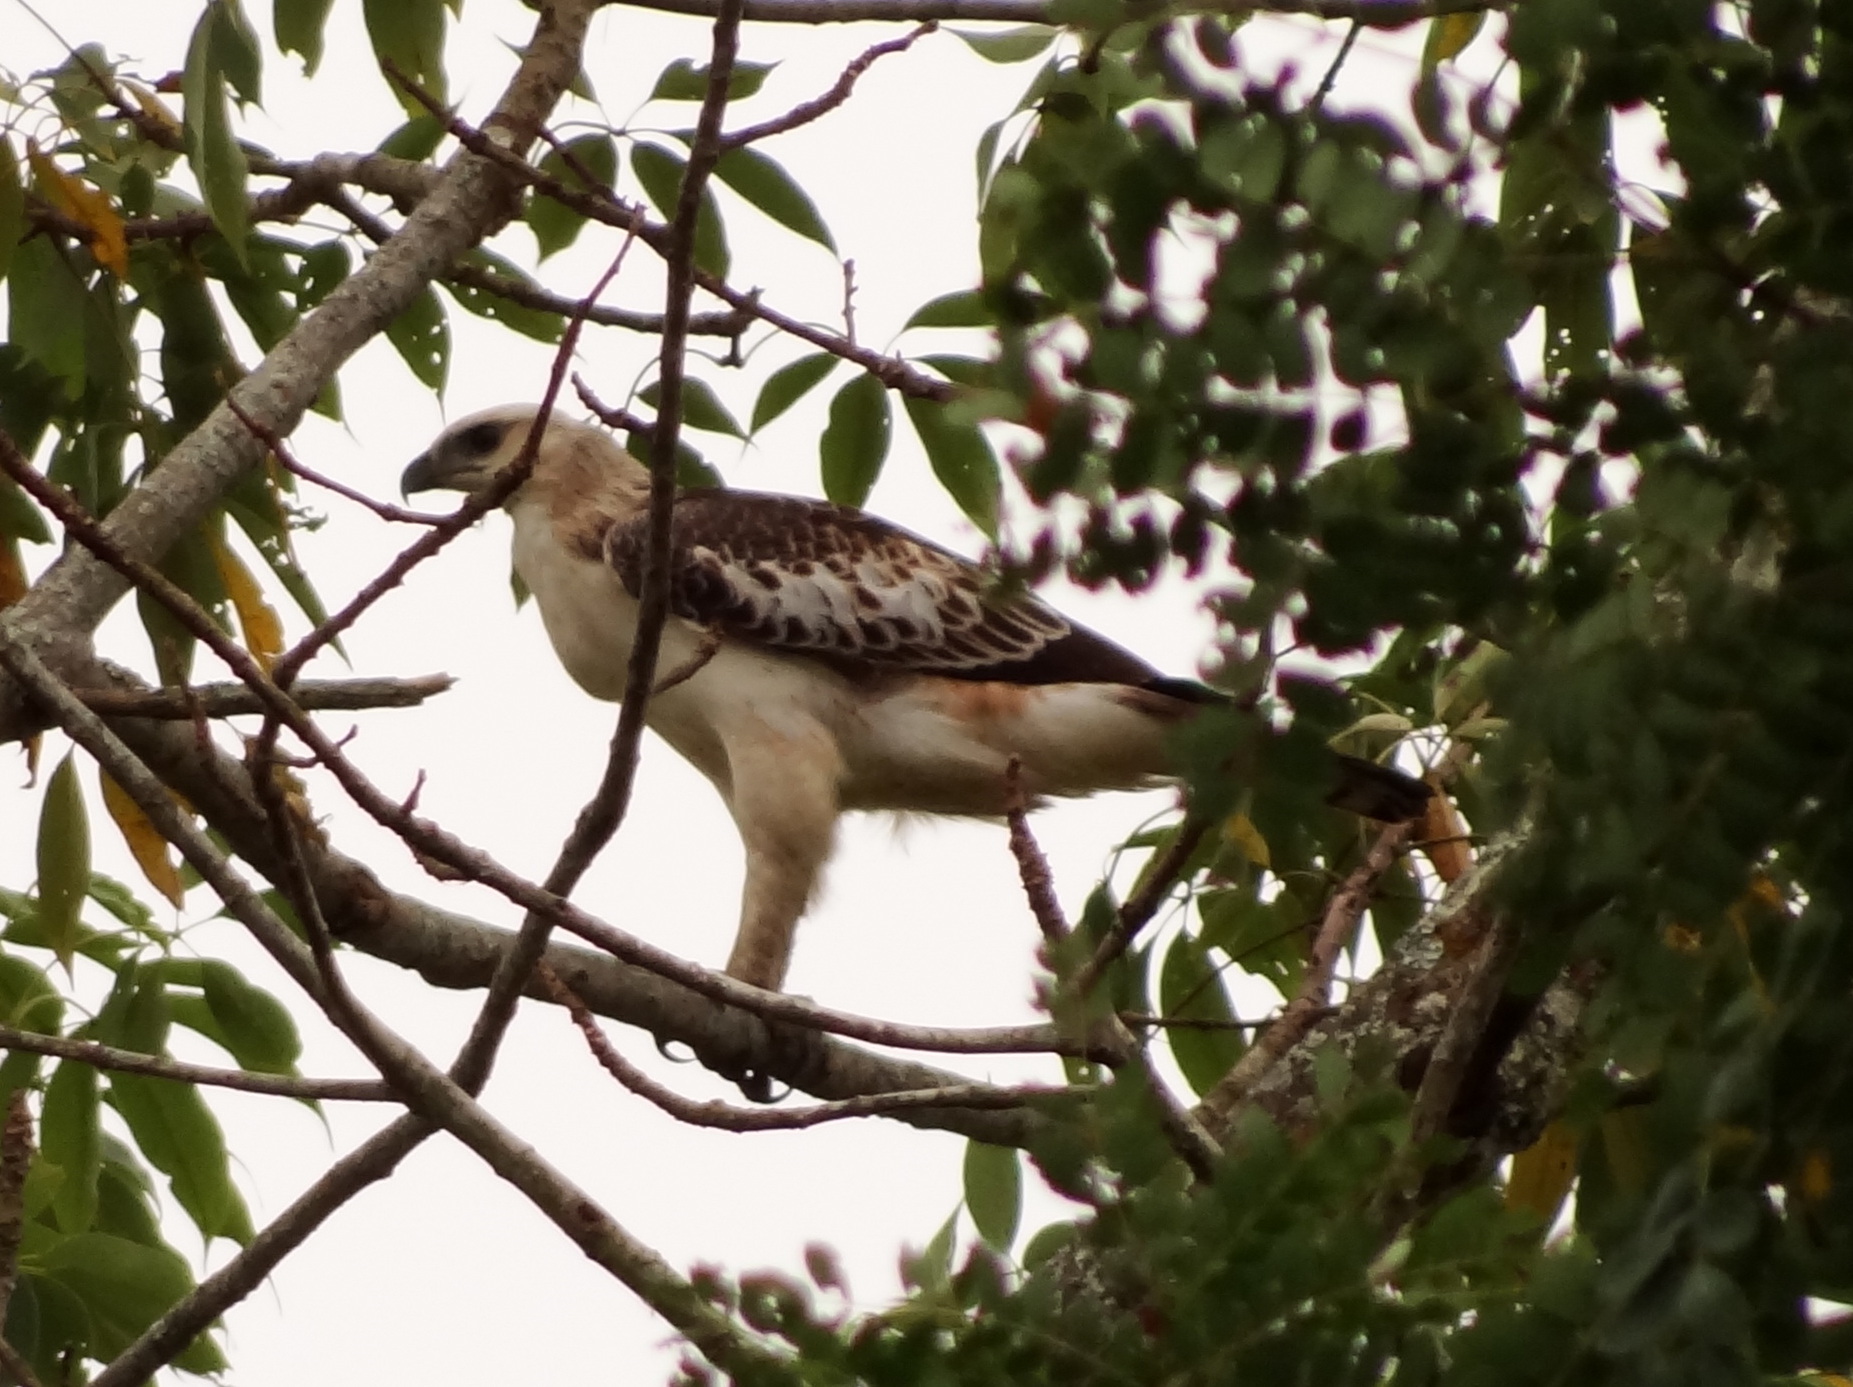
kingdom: Animalia
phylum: Chordata
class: Aves
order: Accipitriformes
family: Accipitridae
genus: Nisaetus
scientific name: Nisaetus cirrhatus
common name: Changeable hawk-eagle
